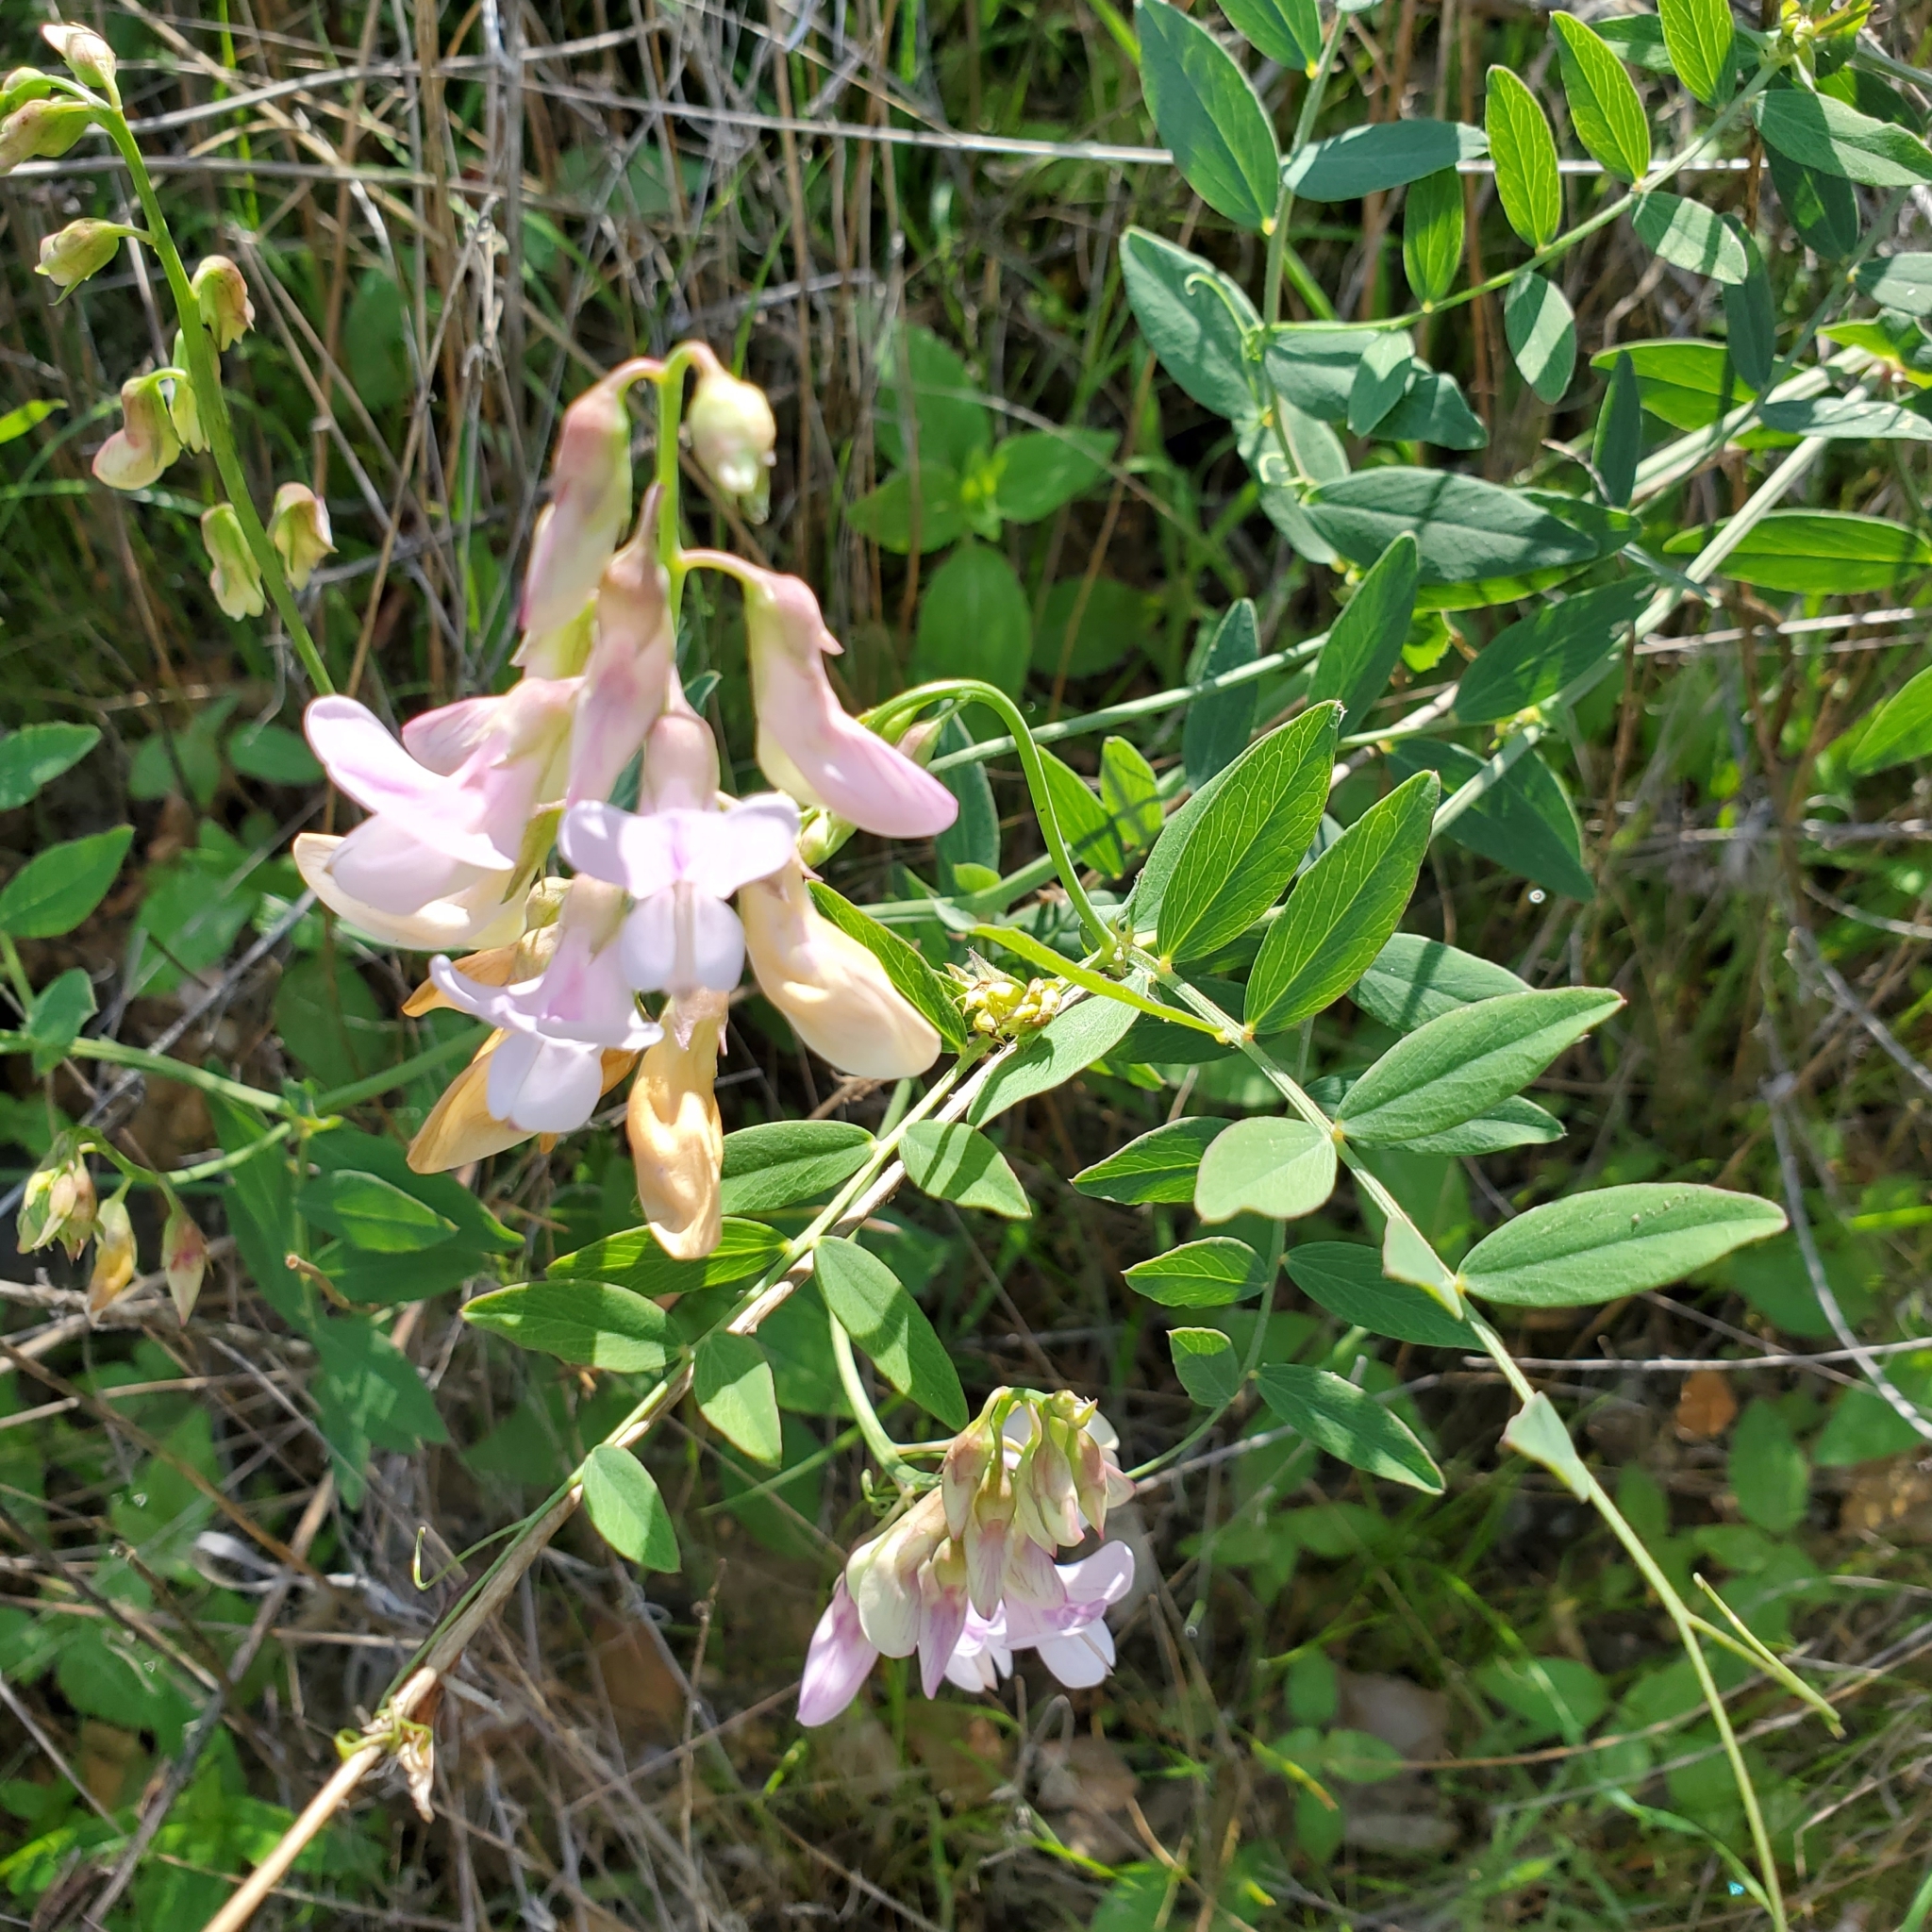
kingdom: Plantae
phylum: Tracheophyta
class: Magnoliopsida
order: Fabales
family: Fabaceae
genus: Lathyrus
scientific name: Lathyrus vestitus
